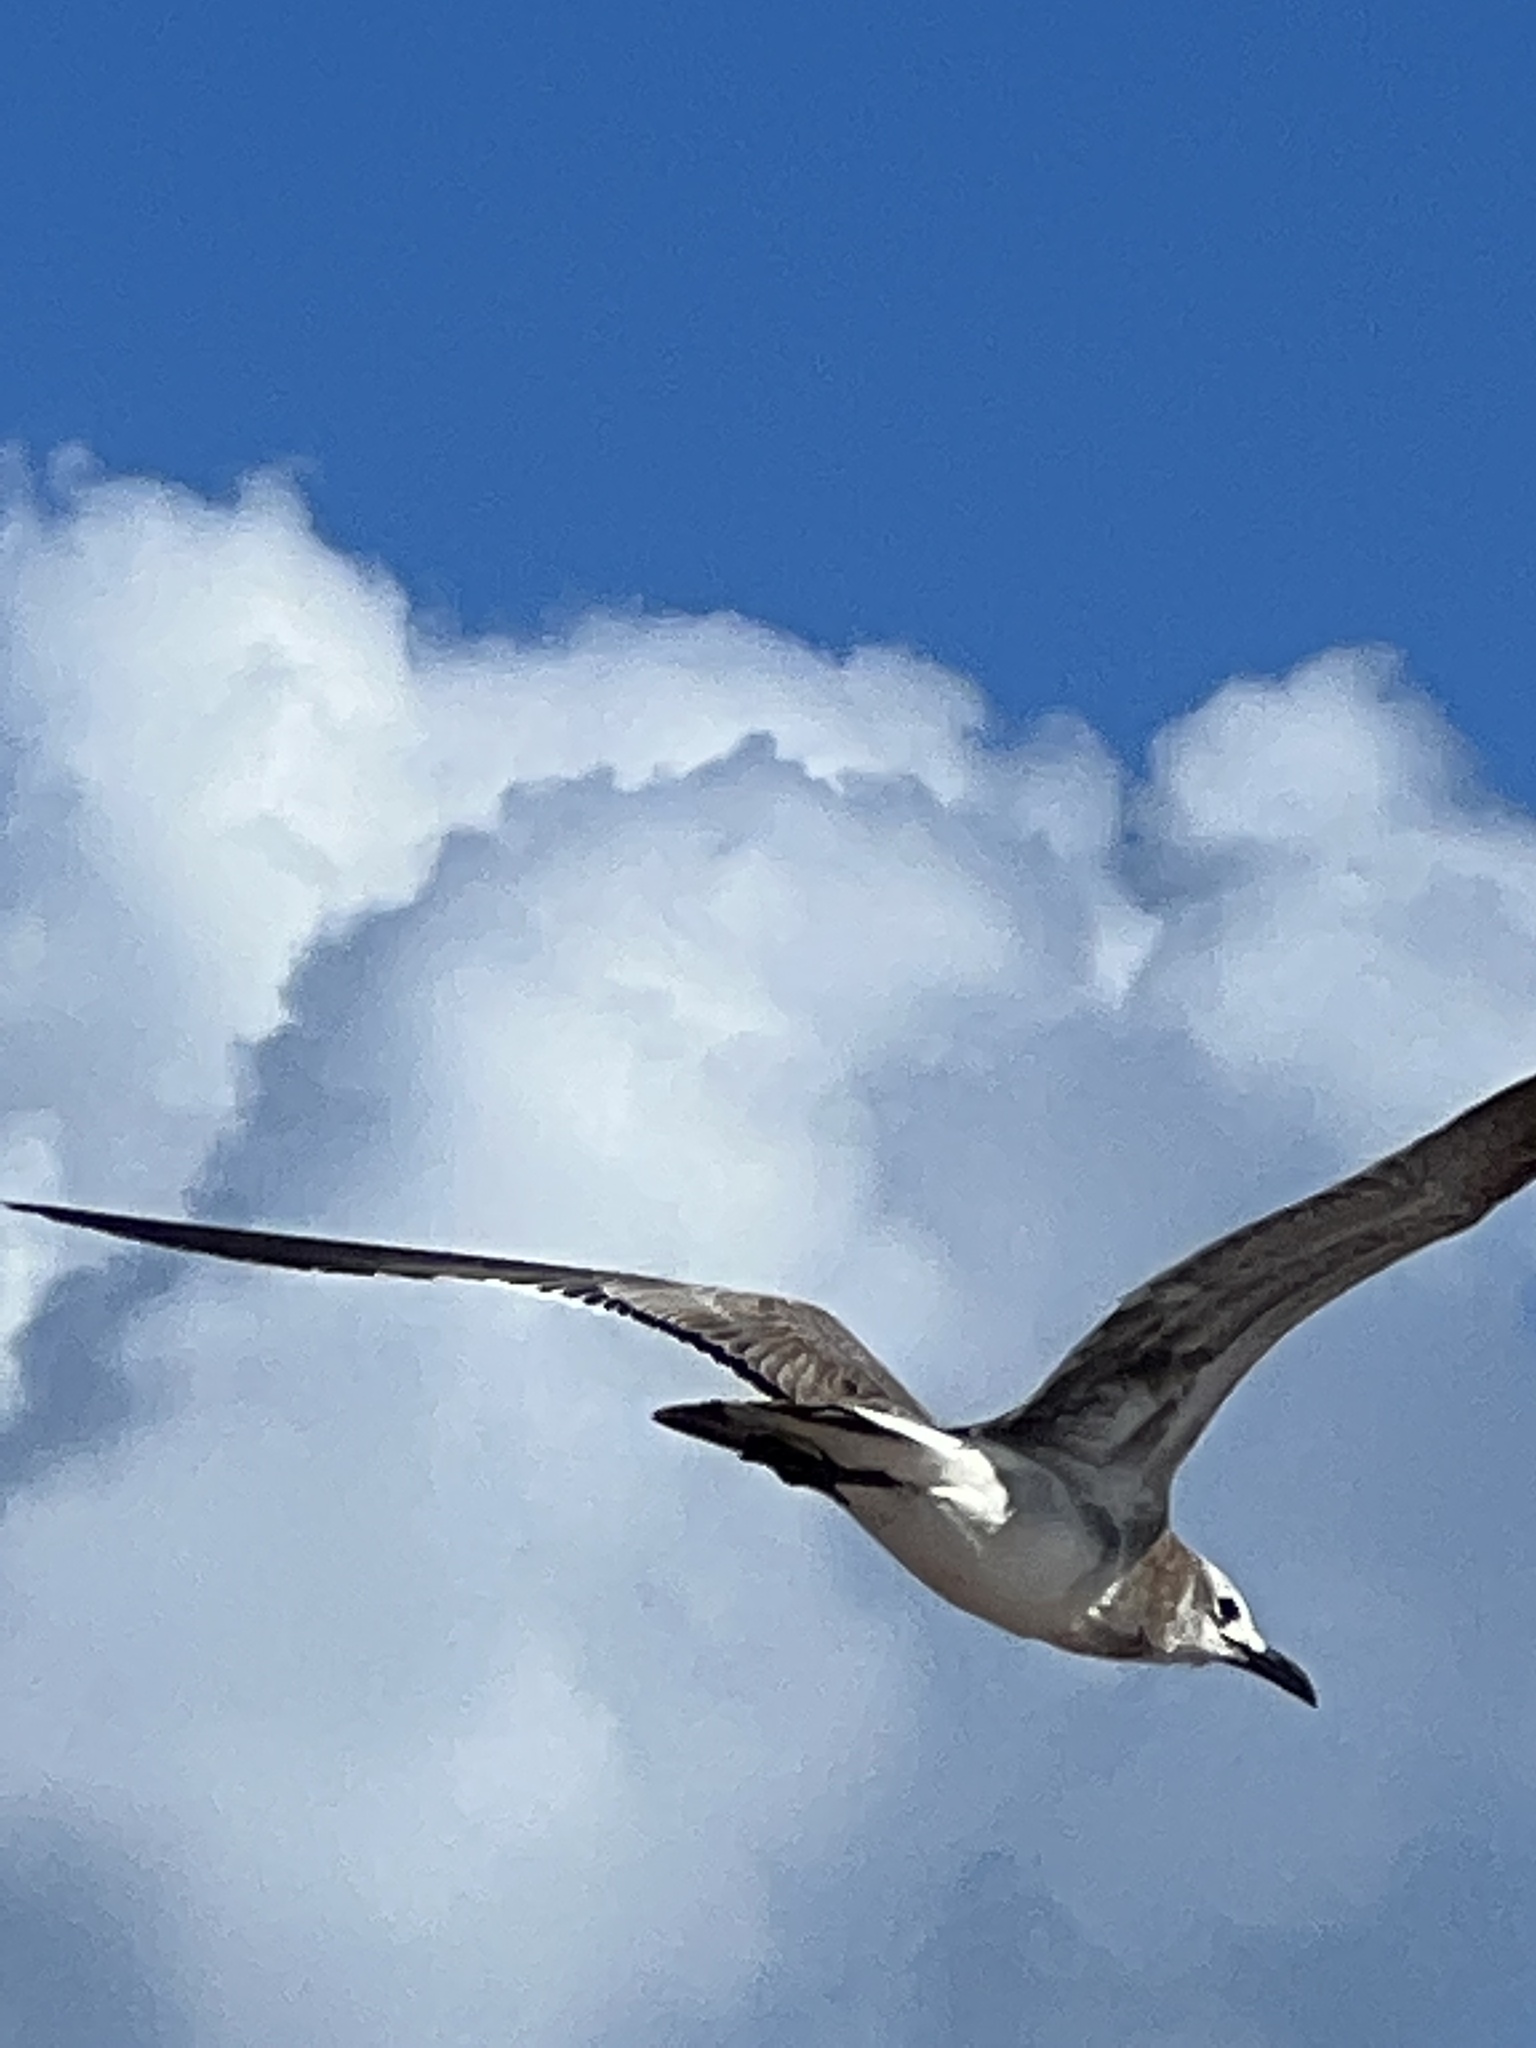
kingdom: Animalia
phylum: Chordata
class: Aves
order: Charadriiformes
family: Laridae
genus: Leucophaeus
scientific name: Leucophaeus atricilla
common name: Laughing gull
